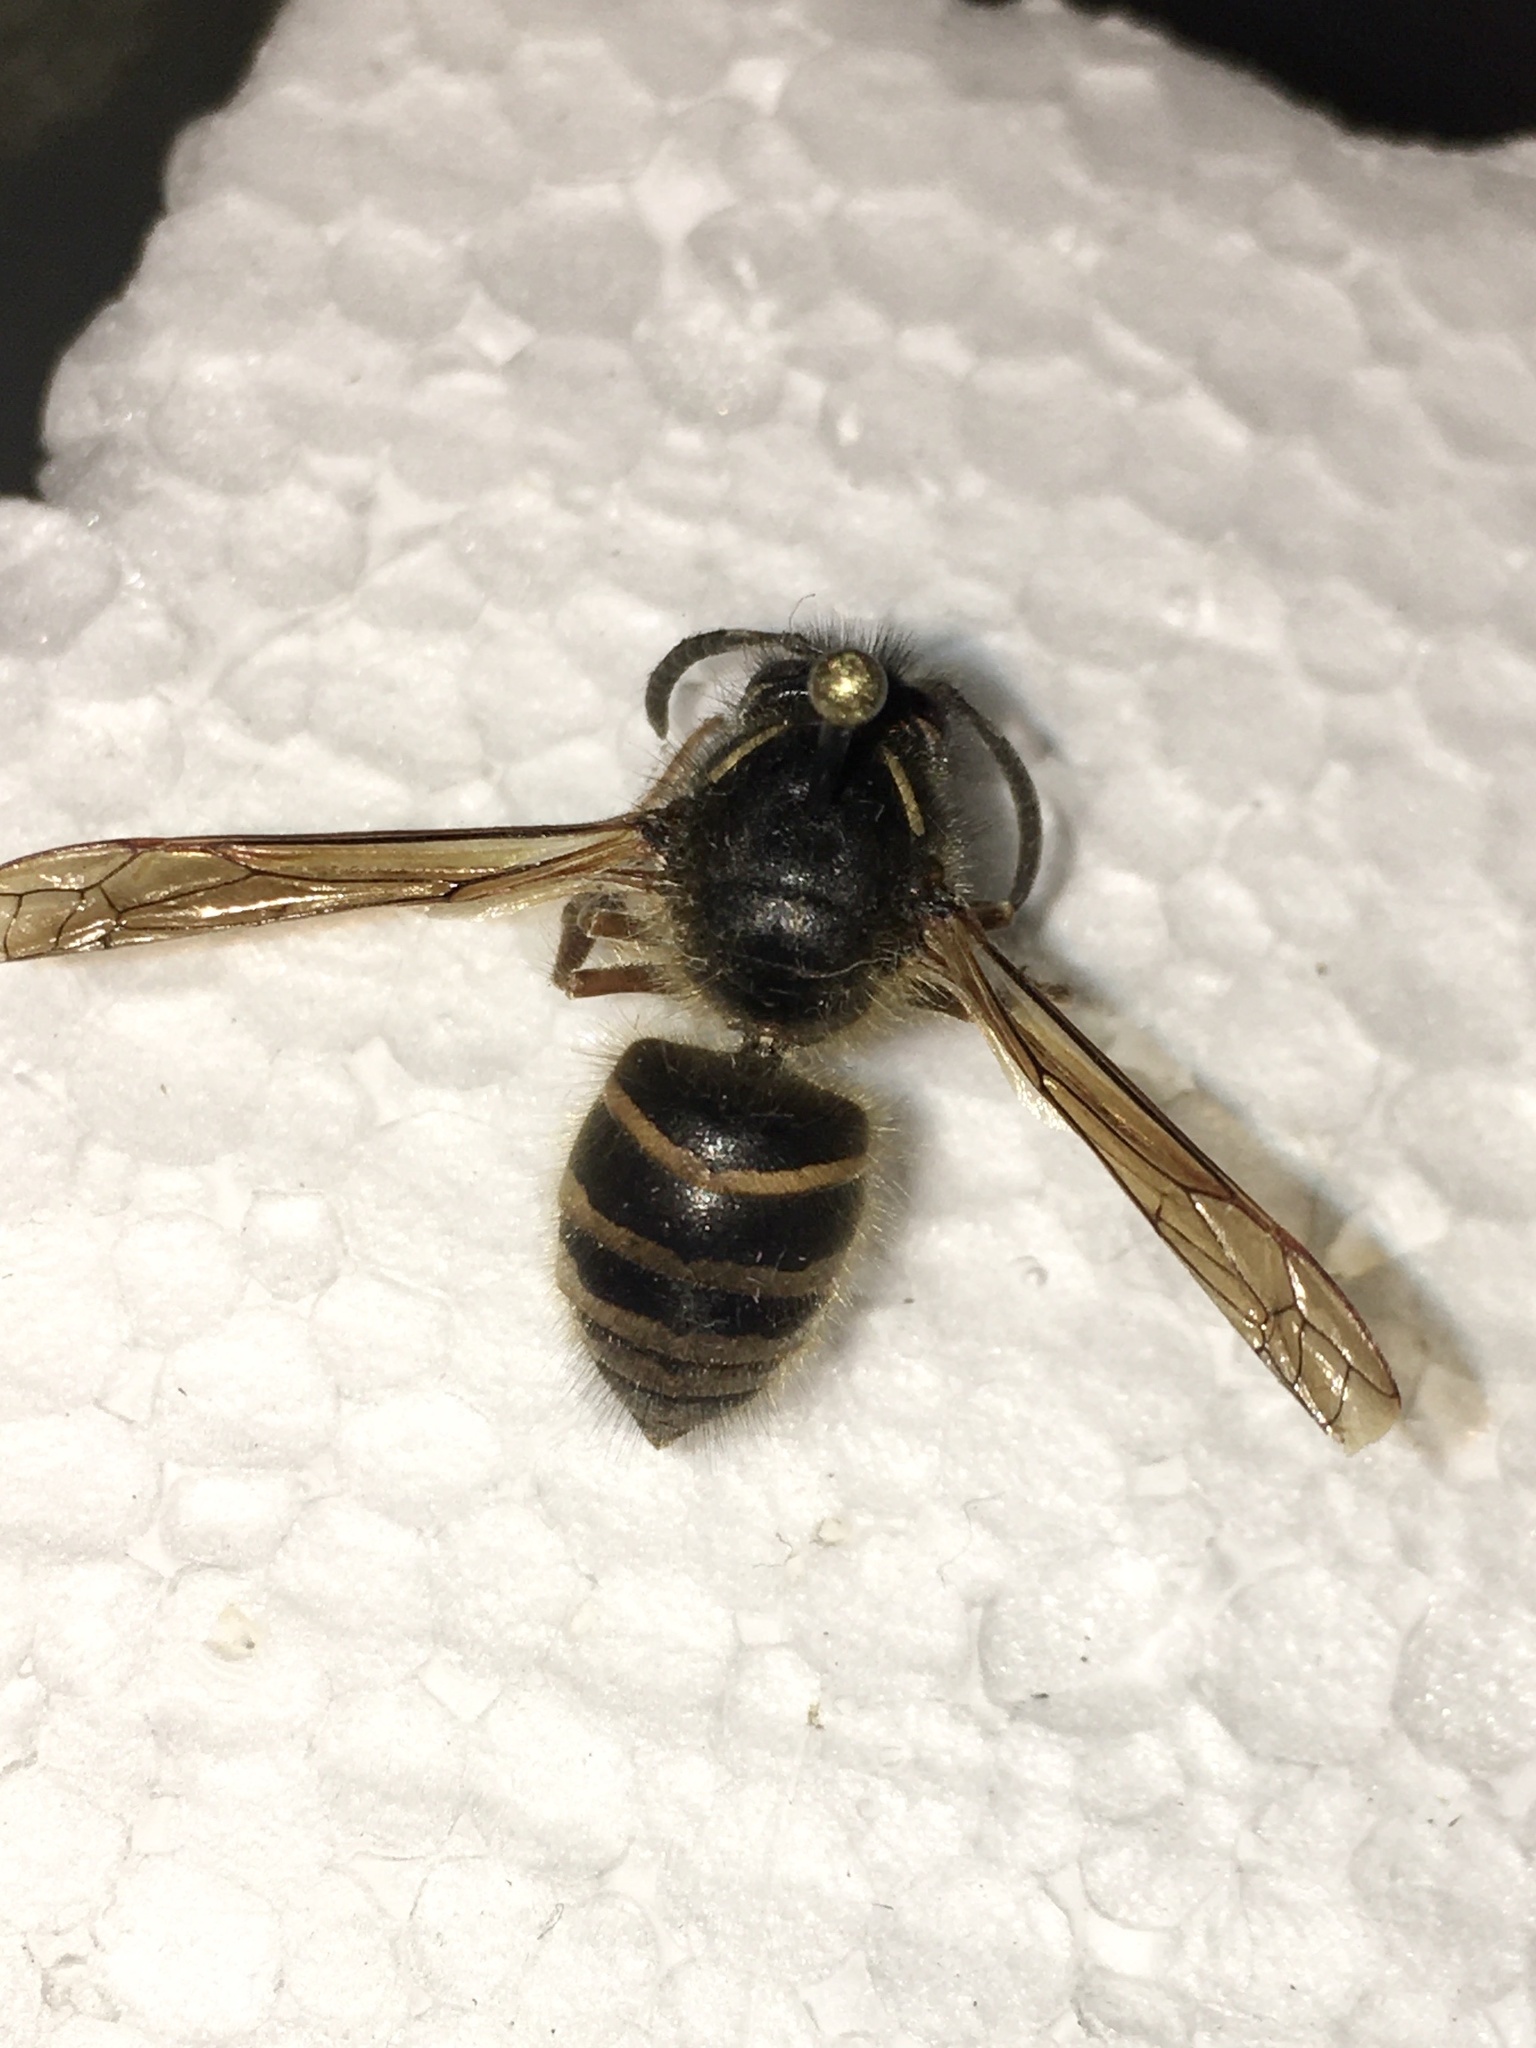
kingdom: Animalia
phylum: Arthropoda
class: Insecta
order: Hymenoptera
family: Vespidae
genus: Dolichovespula
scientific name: Dolichovespula norwegica
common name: Norwegian wasp
